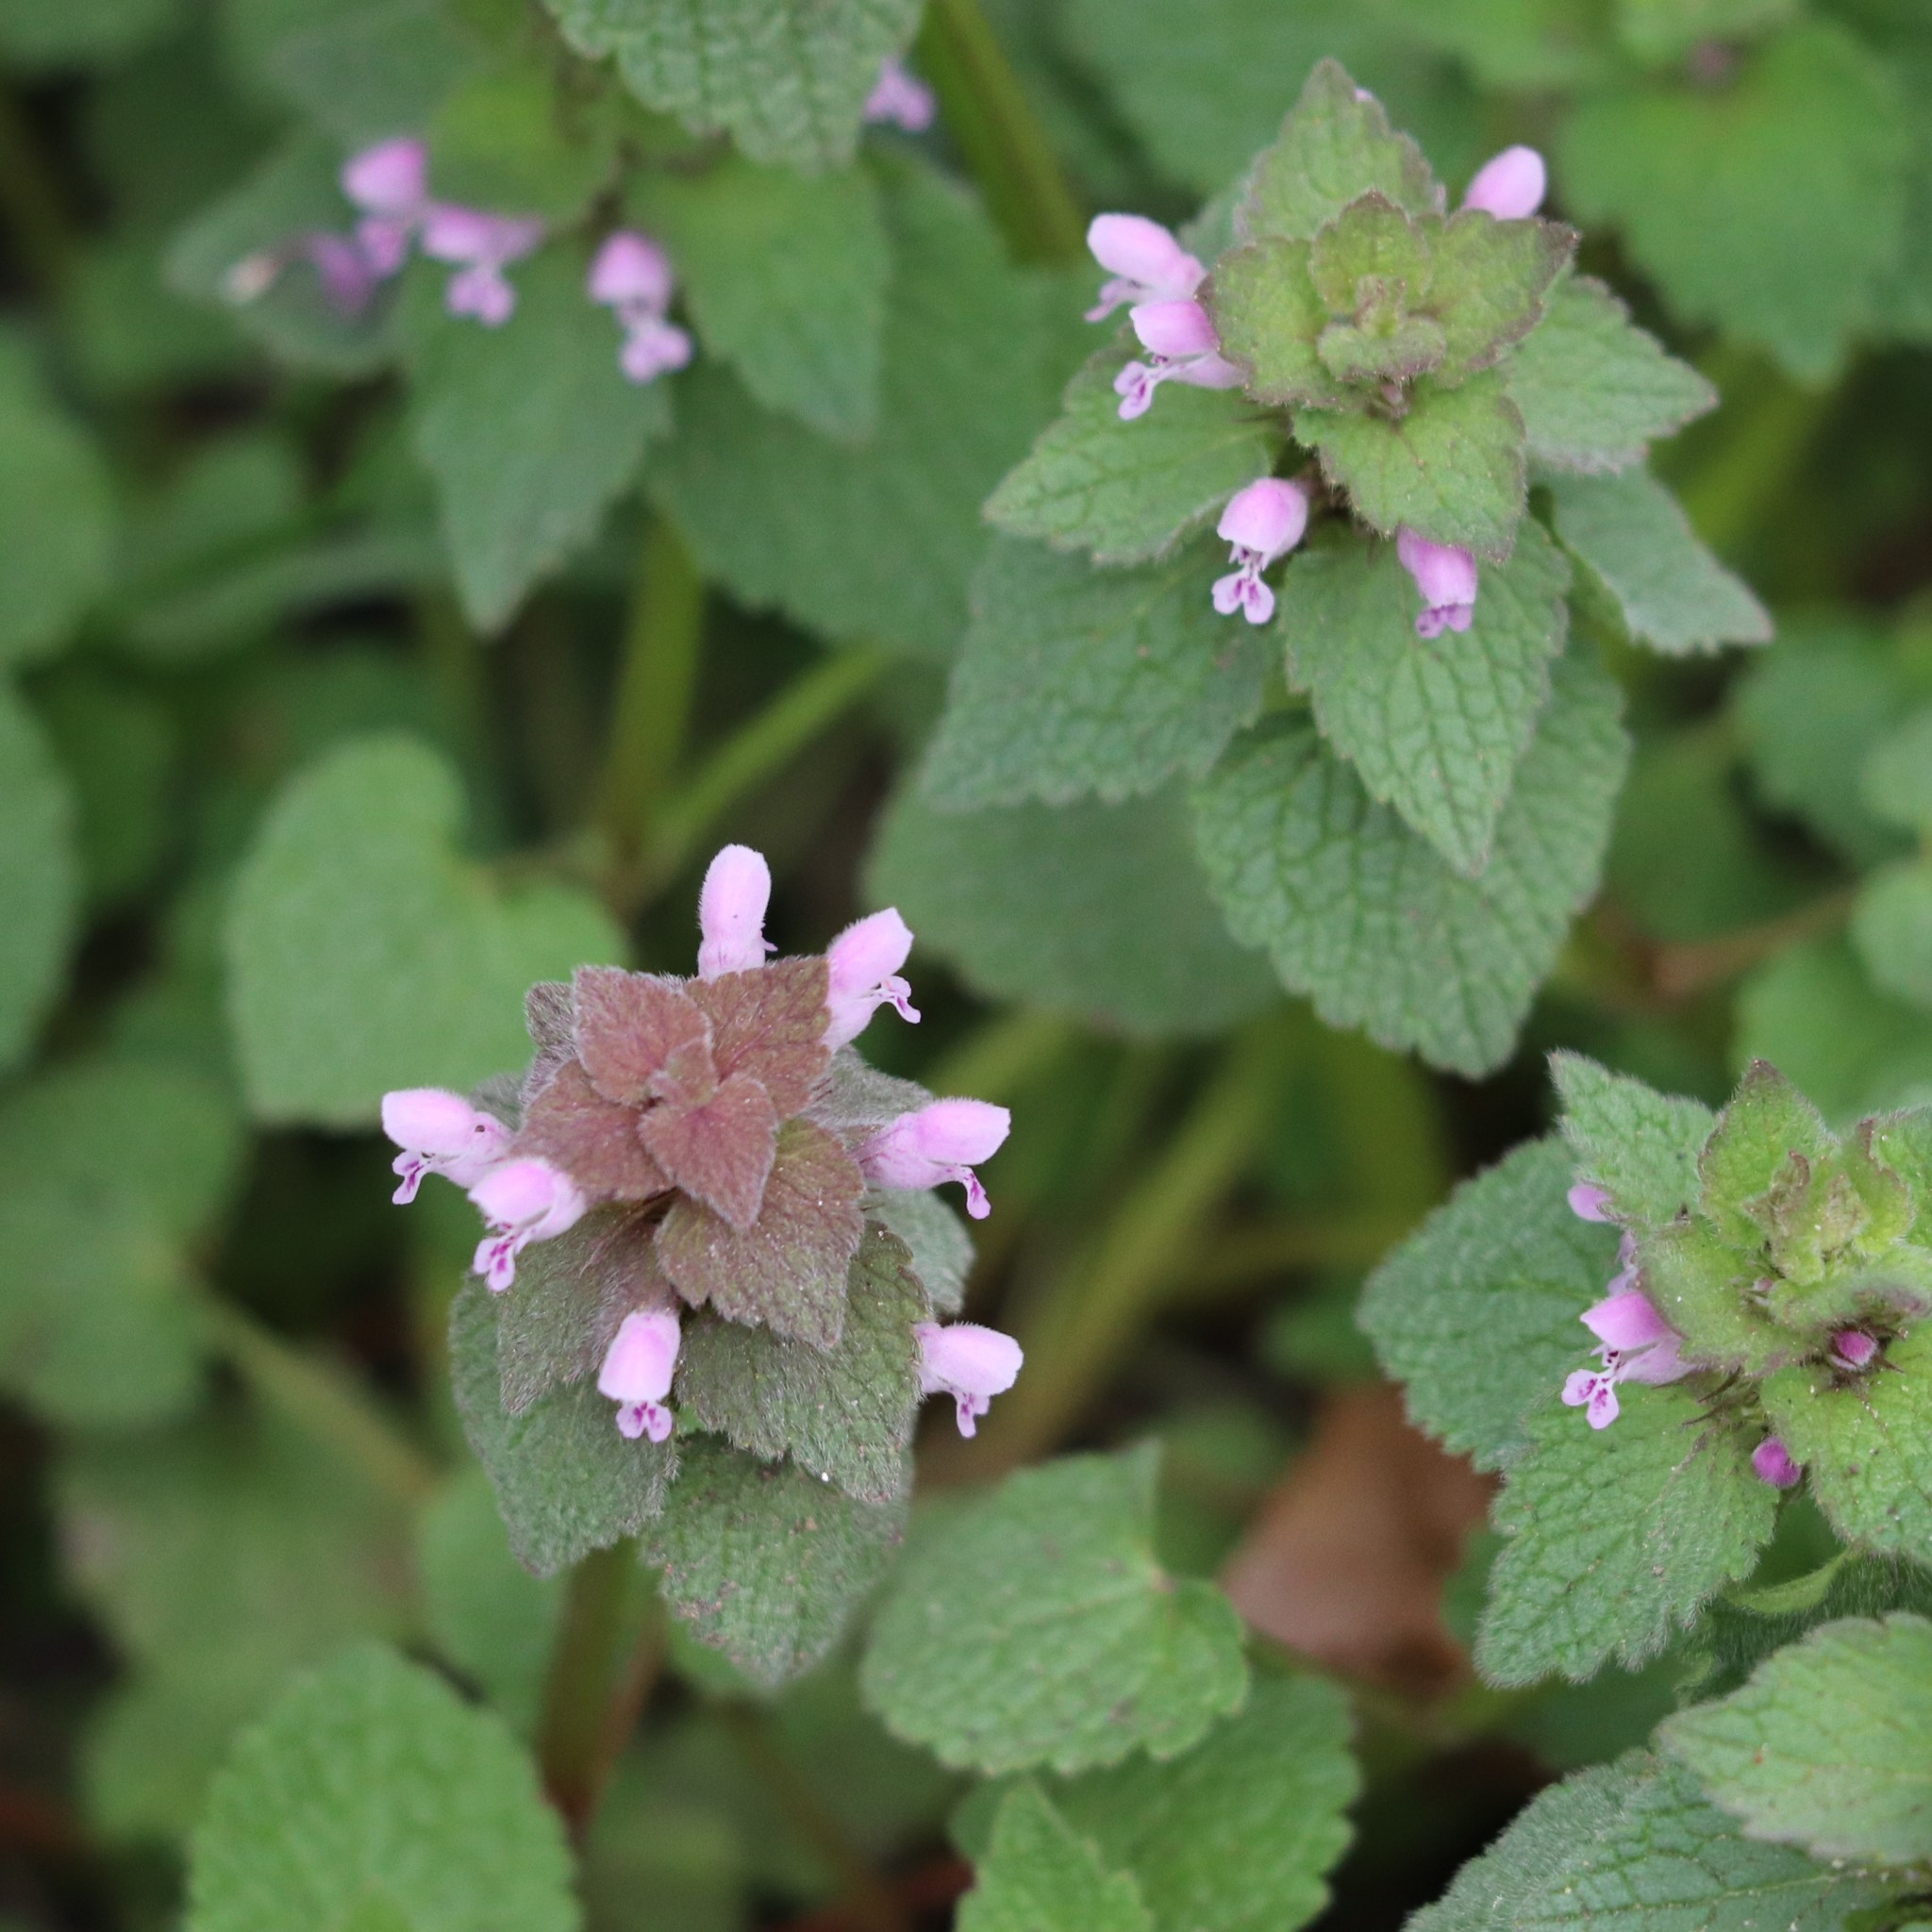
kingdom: Plantae
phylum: Tracheophyta
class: Magnoliopsida
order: Lamiales
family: Lamiaceae
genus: Lamium
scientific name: Lamium purpureum
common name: Red dead-nettle
